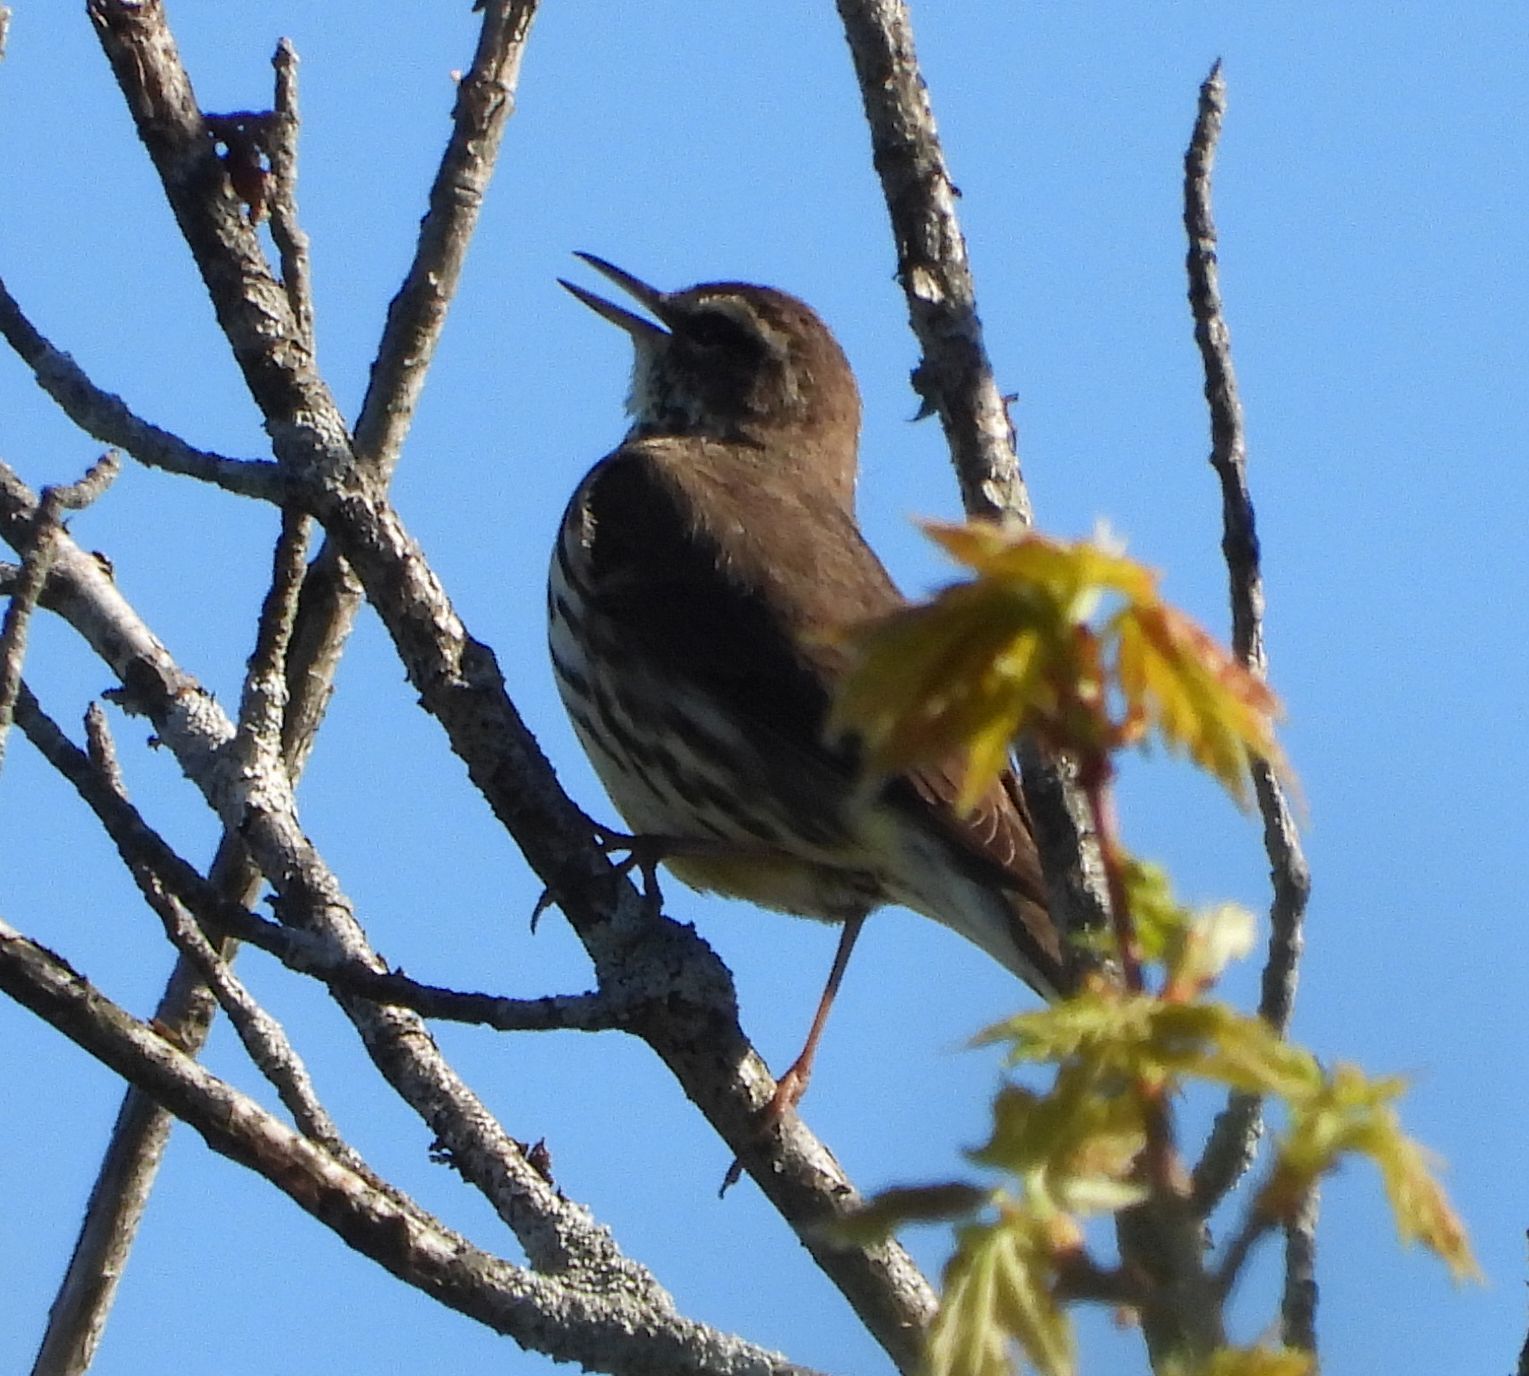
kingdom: Animalia
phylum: Chordata
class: Aves
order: Passeriformes
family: Parulidae
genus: Parkesia
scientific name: Parkesia noveboracensis
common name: Northern waterthrush
